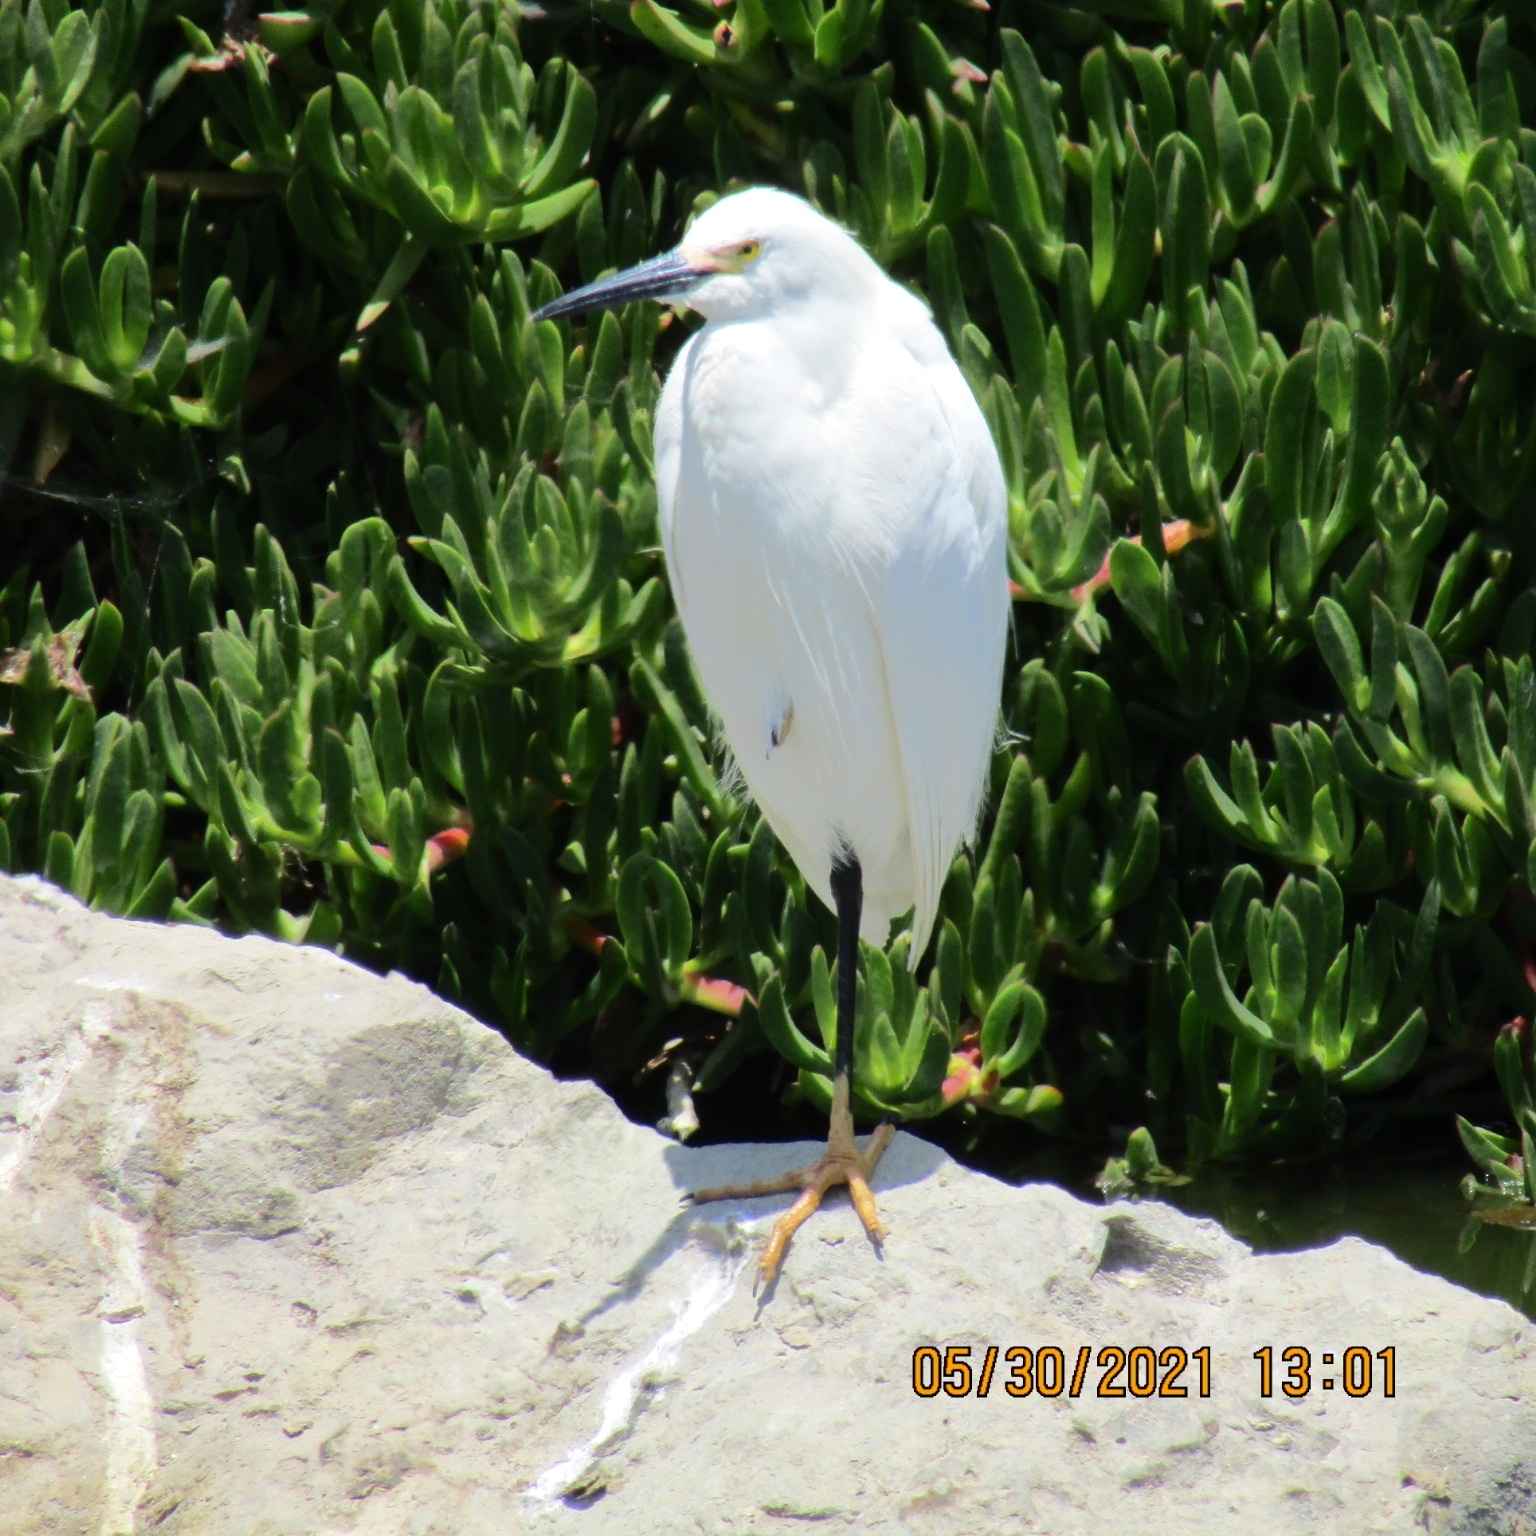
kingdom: Animalia
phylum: Chordata
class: Aves
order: Pelecaniformes
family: Ardeidae
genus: Egretta
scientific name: Egretta thula
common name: Snowy egret
